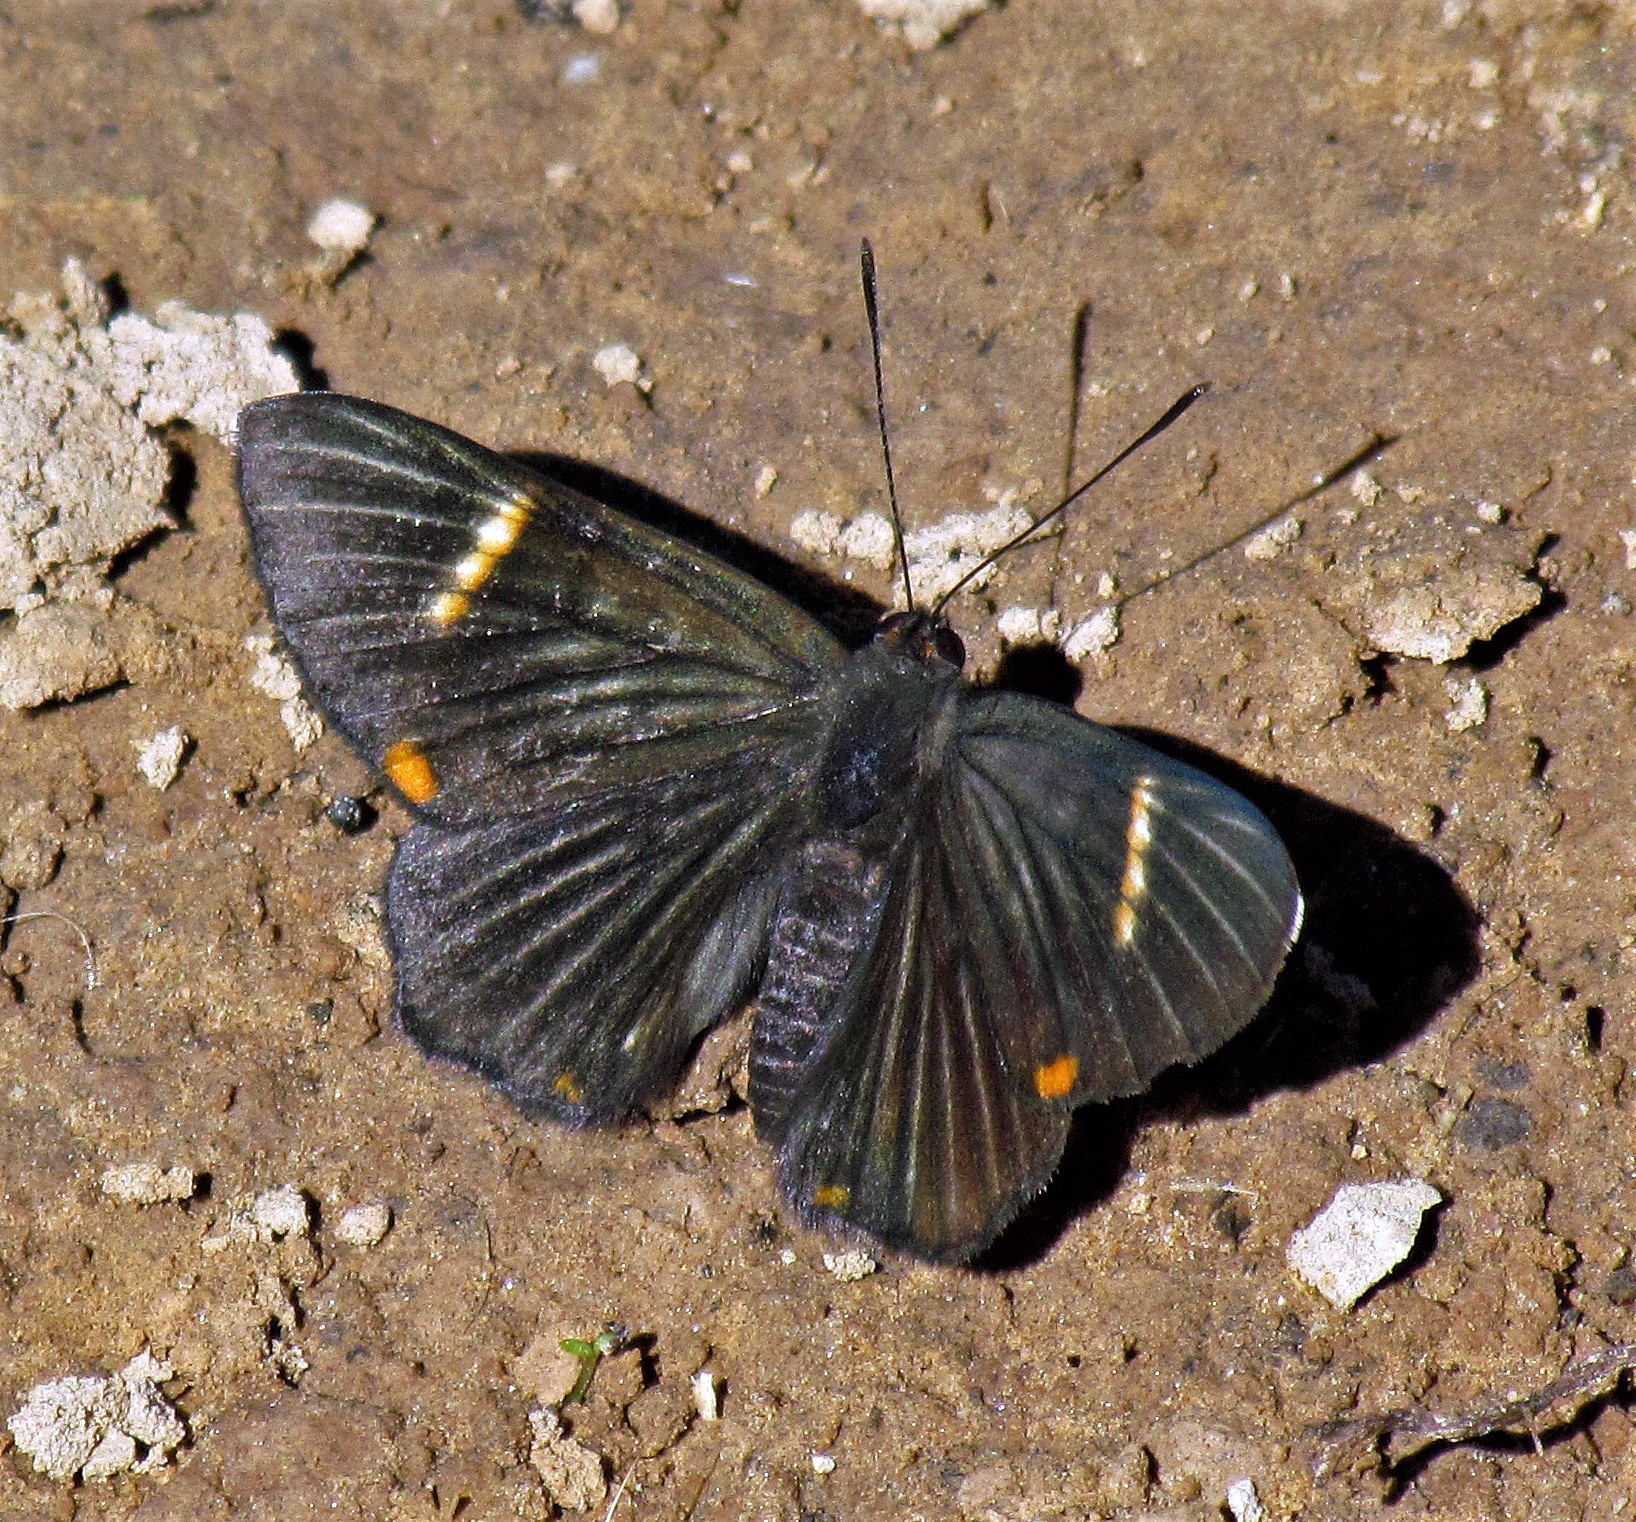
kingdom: Animalia
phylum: Arthropoda
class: Insecta
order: Lepidoptera
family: Riodinidae
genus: Riodina
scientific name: Riodina lycisca
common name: Lycisca metalmark
